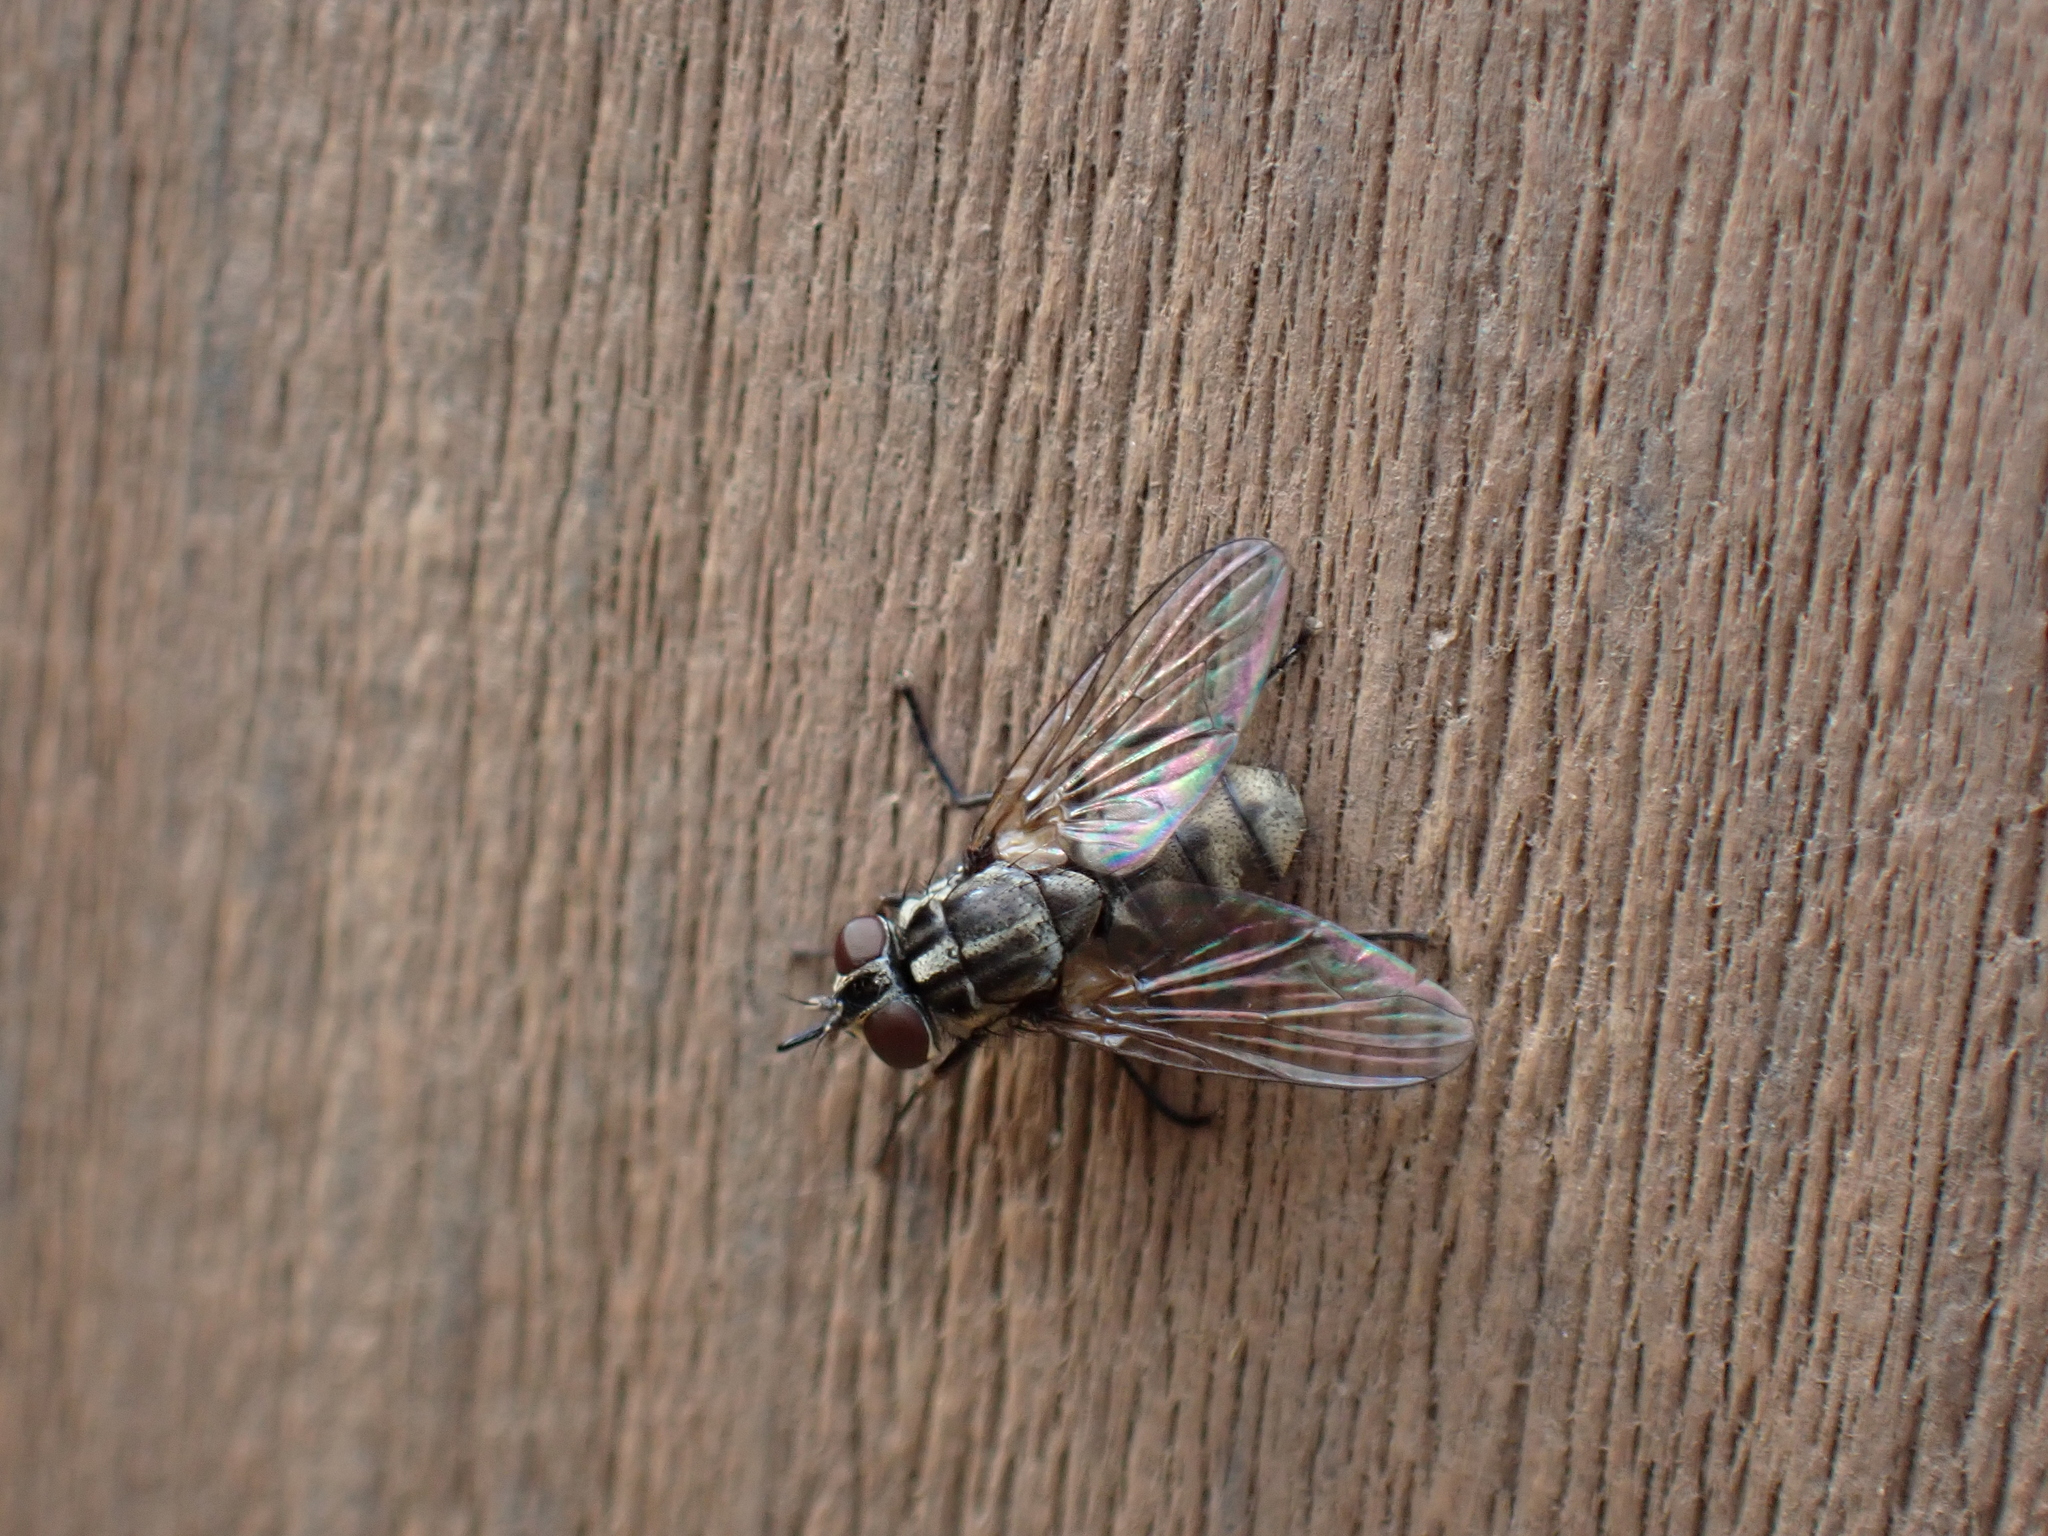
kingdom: Animalia
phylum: Arthropoda
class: Insecta
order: Diptera
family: Muscidae
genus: Stomoxys
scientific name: Stomoxys calcitrans
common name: Stable fly
